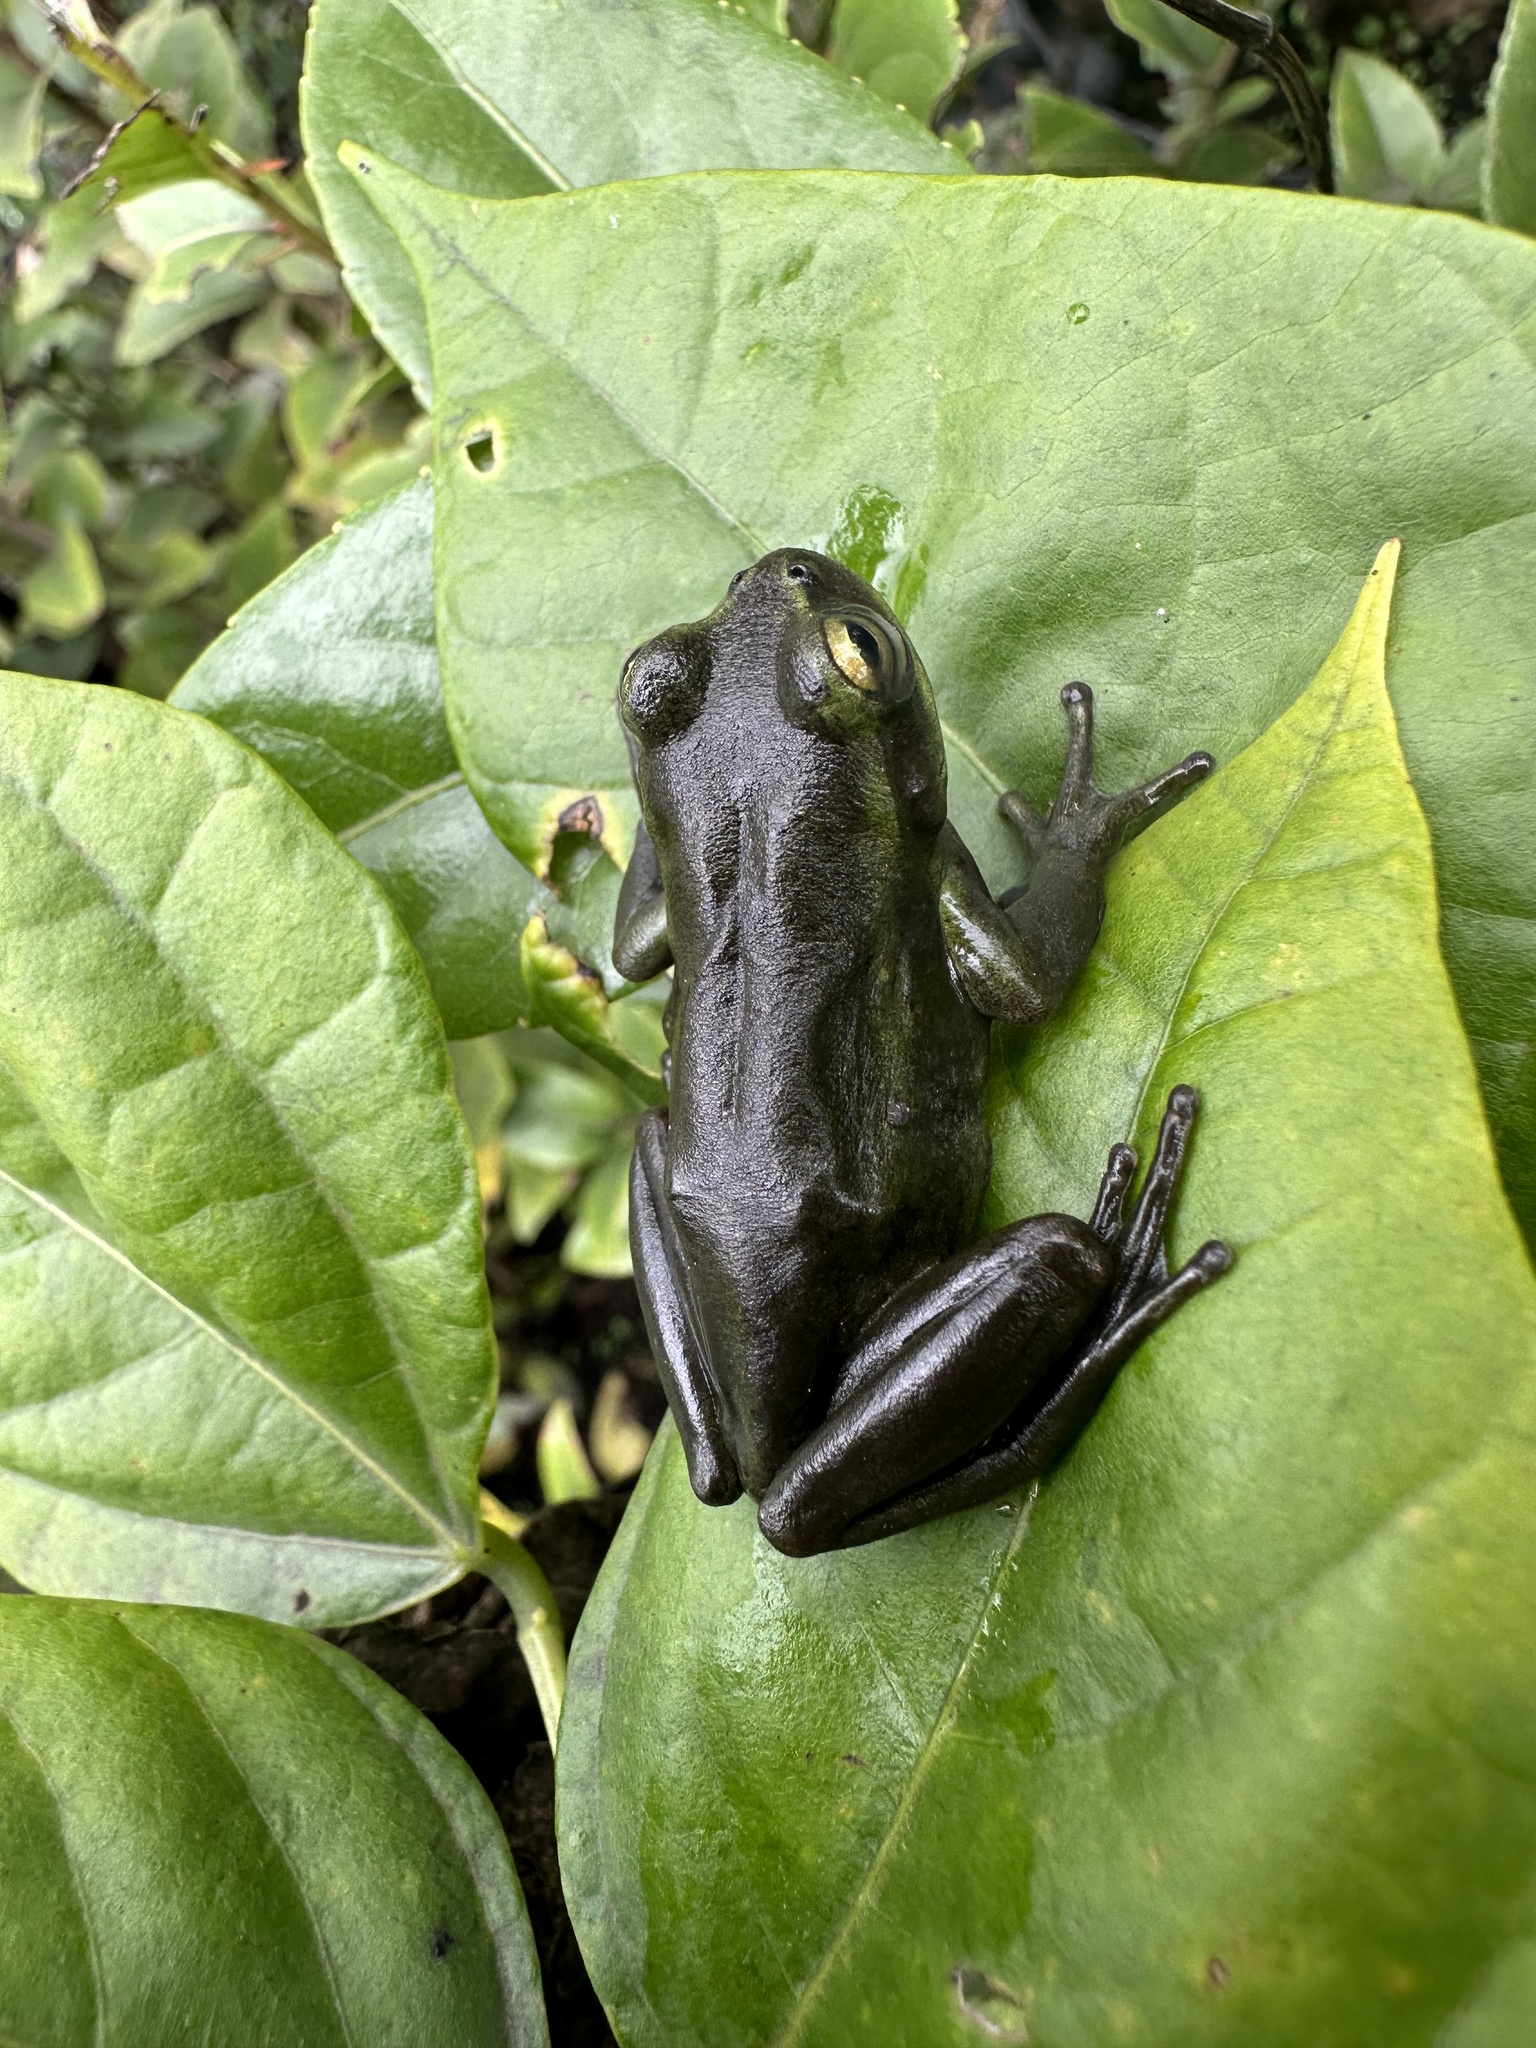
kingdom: Animalia
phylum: Chordata
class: Amphibia
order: Anura
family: Hylidae
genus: Dendropsophus
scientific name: Dendropsophus molitor
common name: Green dotted treefrog
